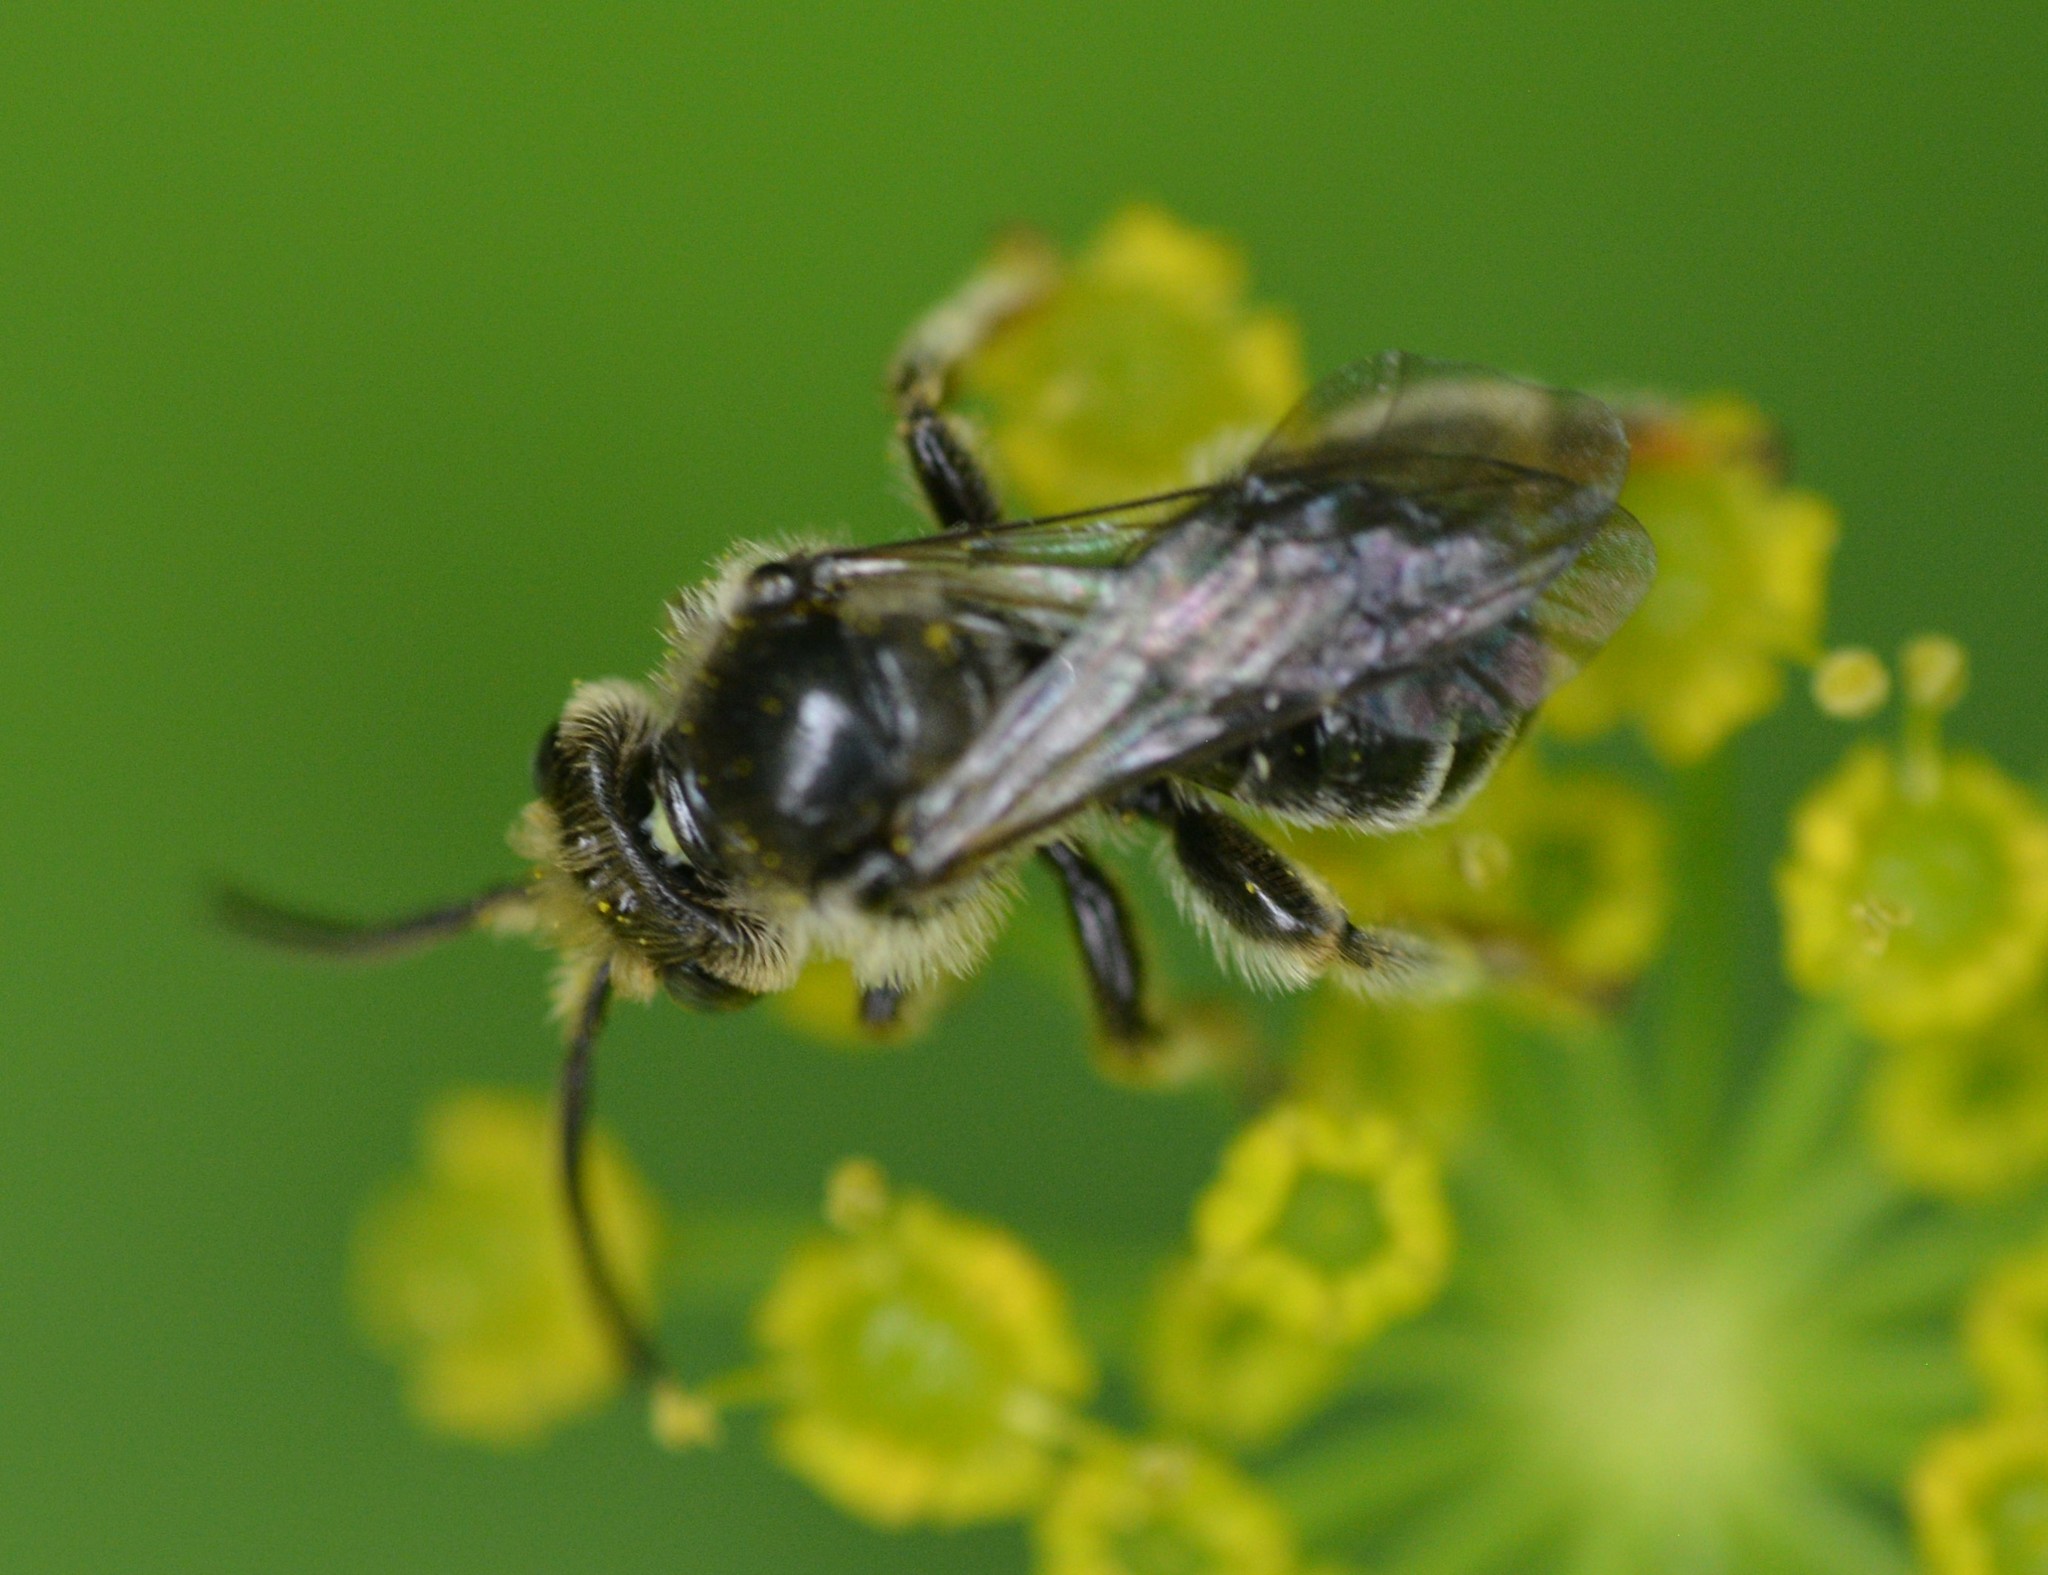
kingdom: Animalia
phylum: Arthropoda
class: Insecta
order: Hymenoptera
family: Melittidae
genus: Macropis
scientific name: Macropis nuda
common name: Dark-legged yellow loosestrife bee
